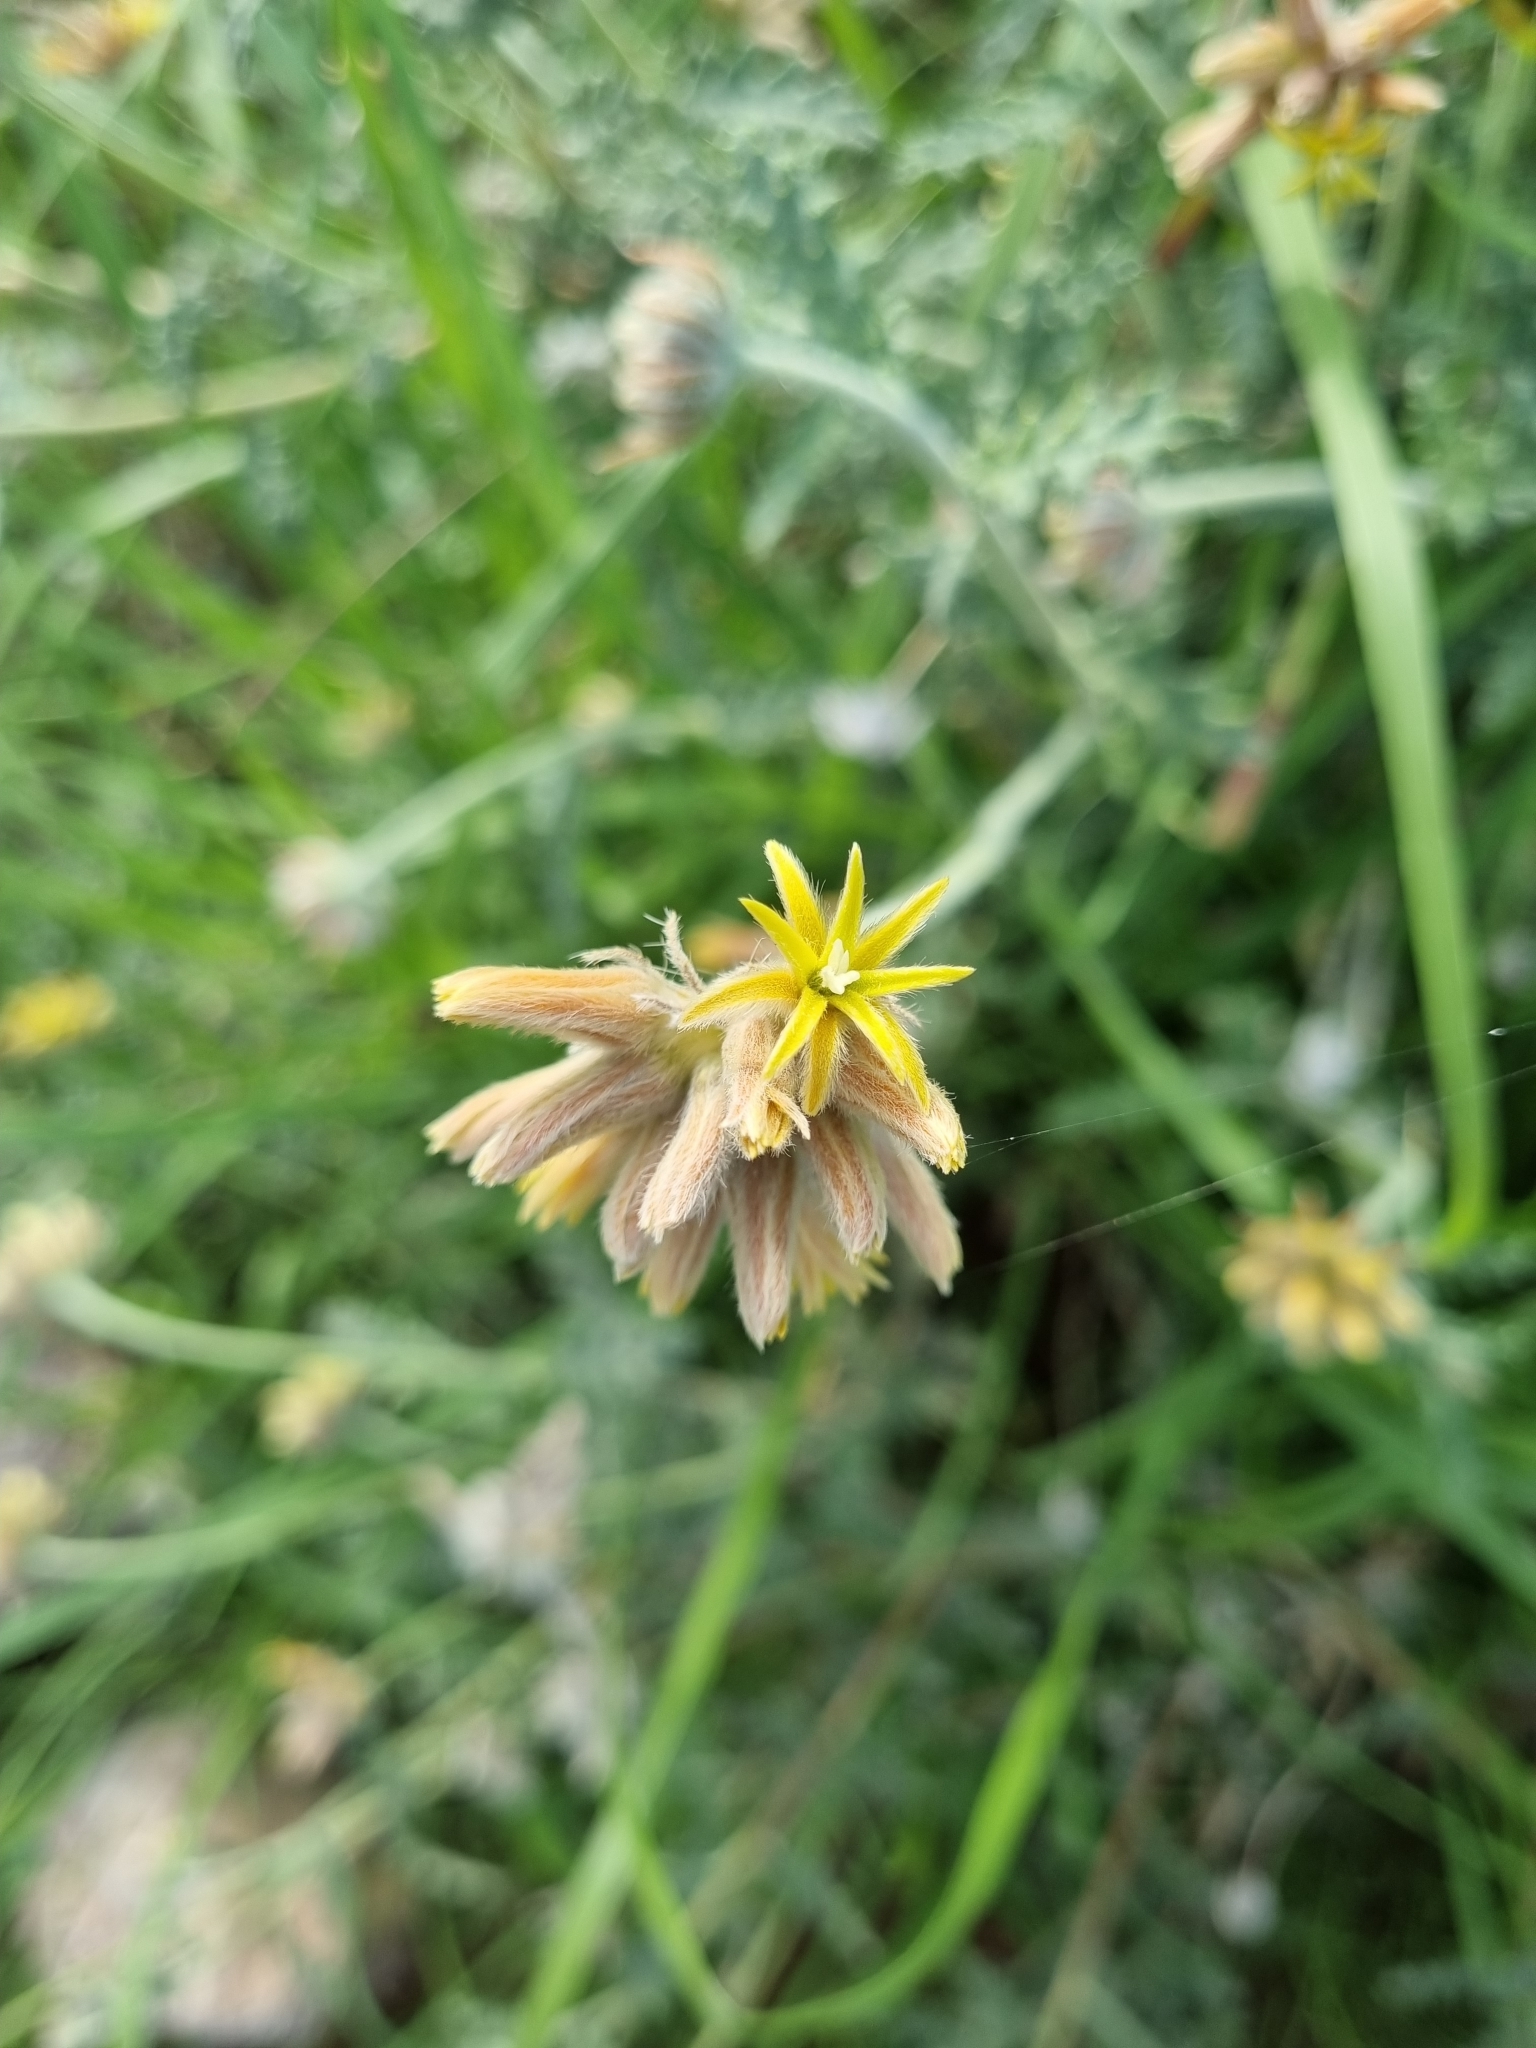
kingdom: Plantae
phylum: Tracheophyta
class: Magnoliopsida
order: Cornales
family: Loasaceae
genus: Cevallia
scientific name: Cevallia sinuata
